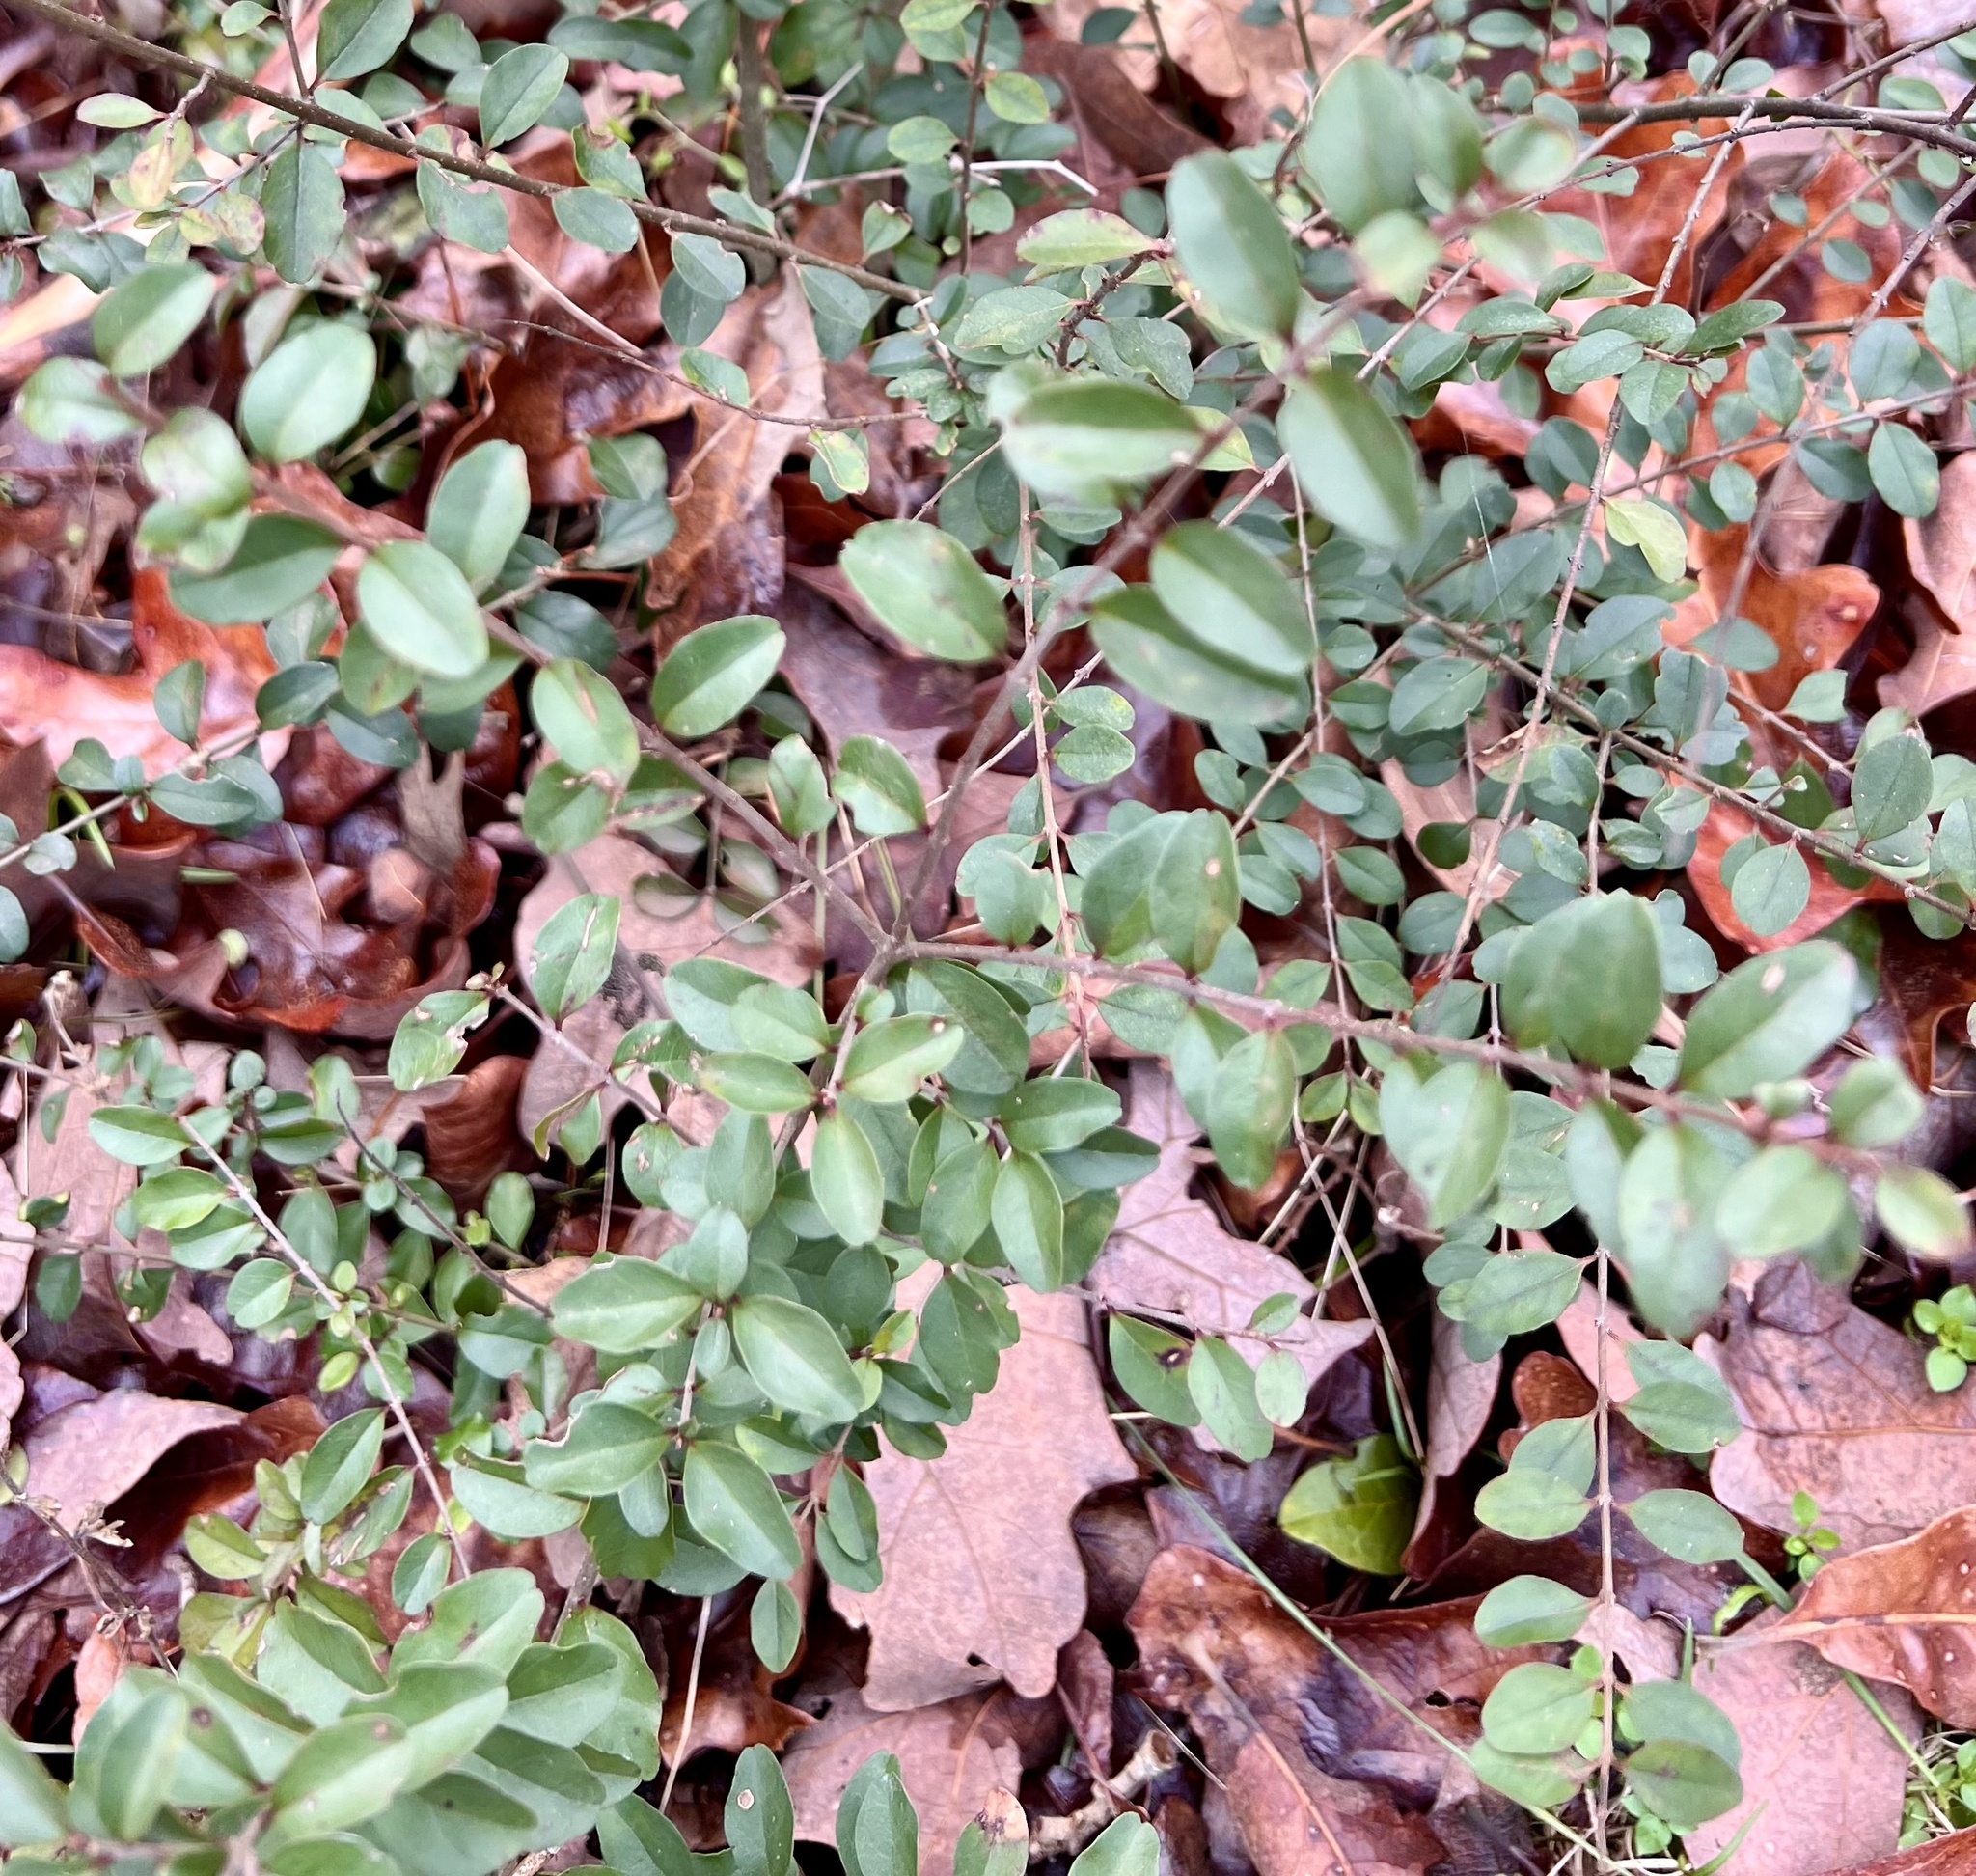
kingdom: Plantae
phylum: Tracheophyta
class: Magnoliopsida
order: Lamiales
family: Oleaceae
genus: Ligustrum
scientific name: Ligustrum sinense
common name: Chinese privet
